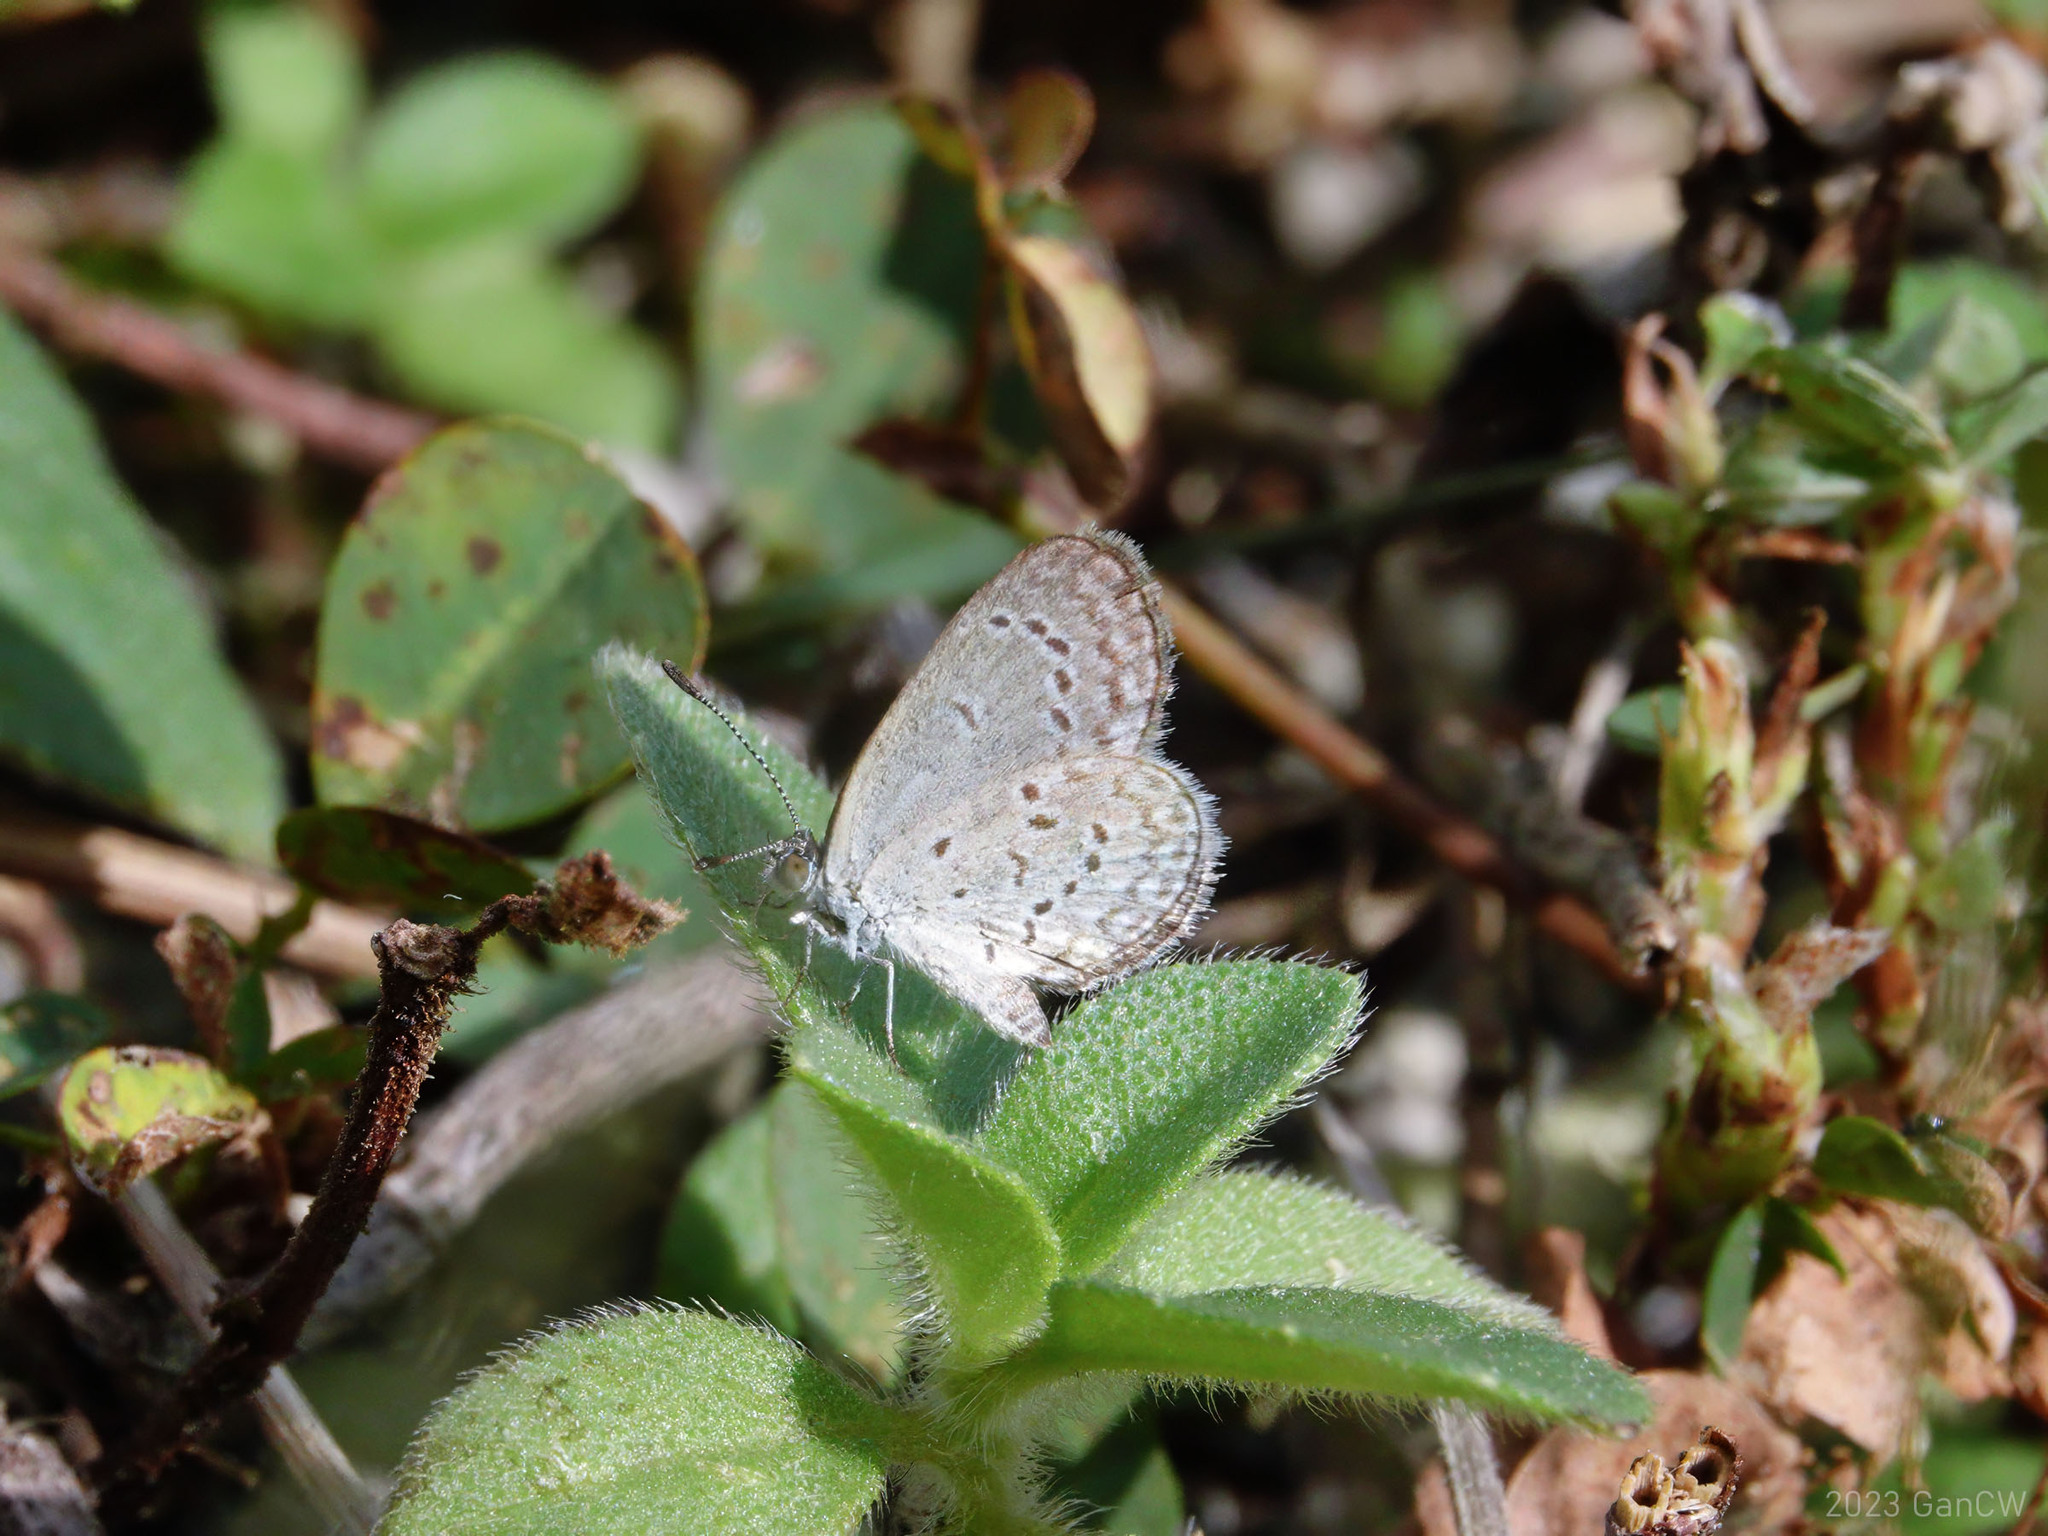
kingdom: Animalia
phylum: Arthropoda
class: Insecta
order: Lepidoptera
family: Lycaenidae
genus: Zizina
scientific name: Zizina otis
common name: Lesser grass blue
